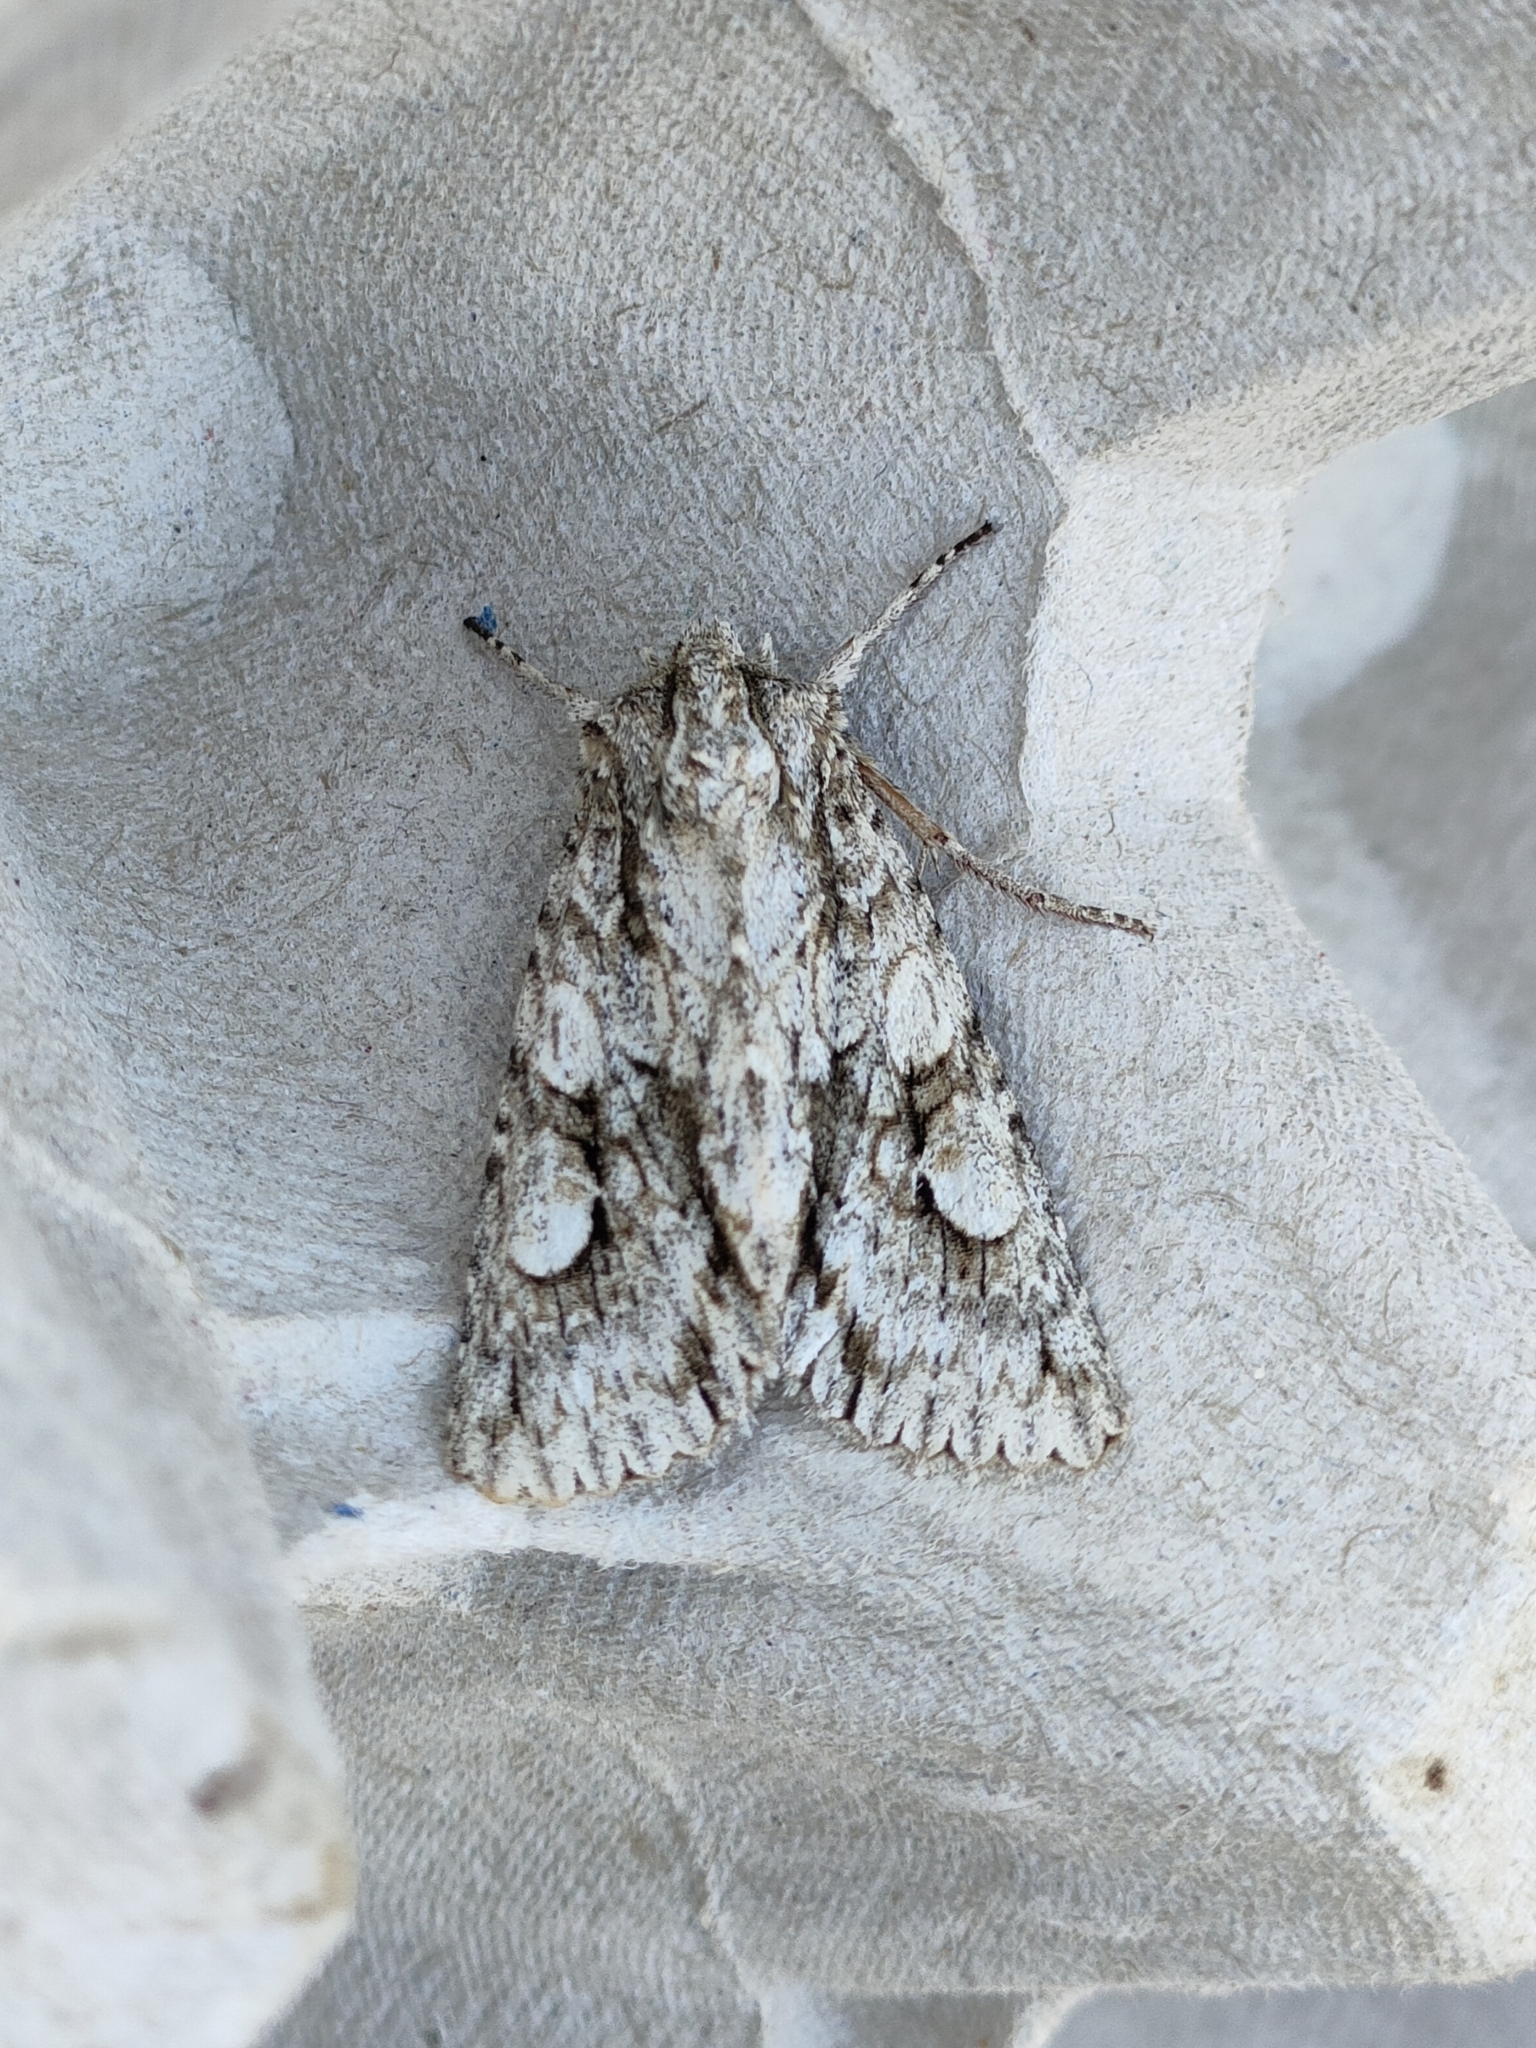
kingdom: Animalia
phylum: Arthropoda
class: Insecta
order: Lepidoptera
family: Noctuidae
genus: Meganephria
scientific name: Meganephria bimaculosa
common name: Double-spot brocade
